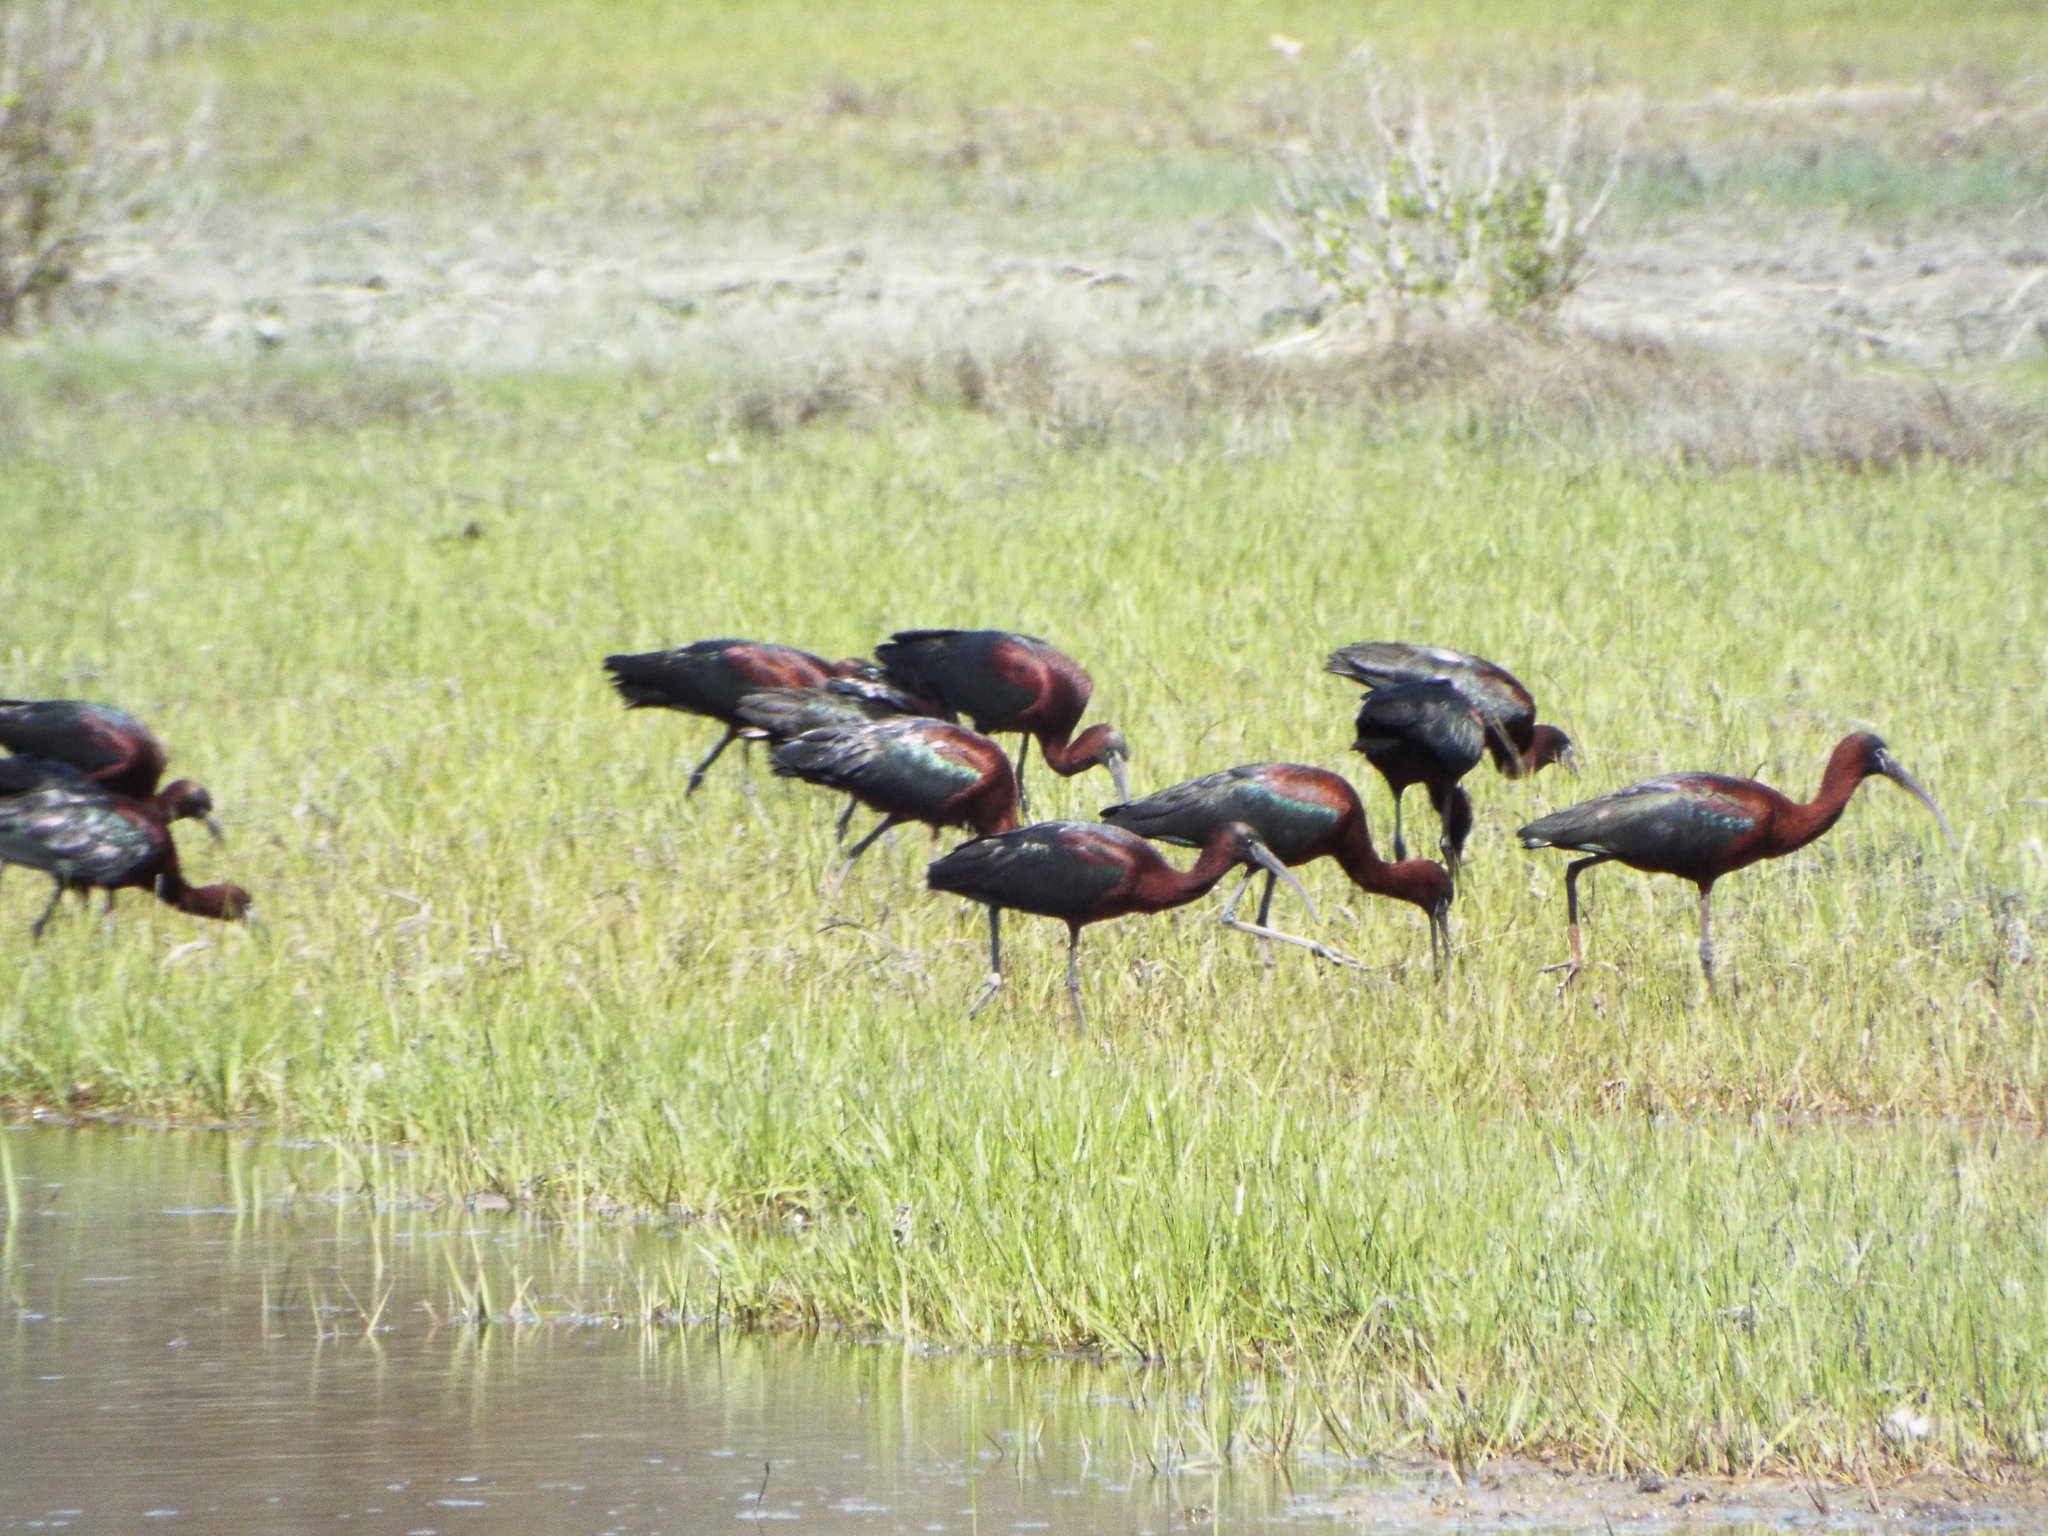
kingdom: Animalia
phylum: Chordata
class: Aves
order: Pelecaniformes
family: Threskiornithidae
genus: Plegadis
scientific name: Plegadis falcinellus
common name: Glossy ibis
